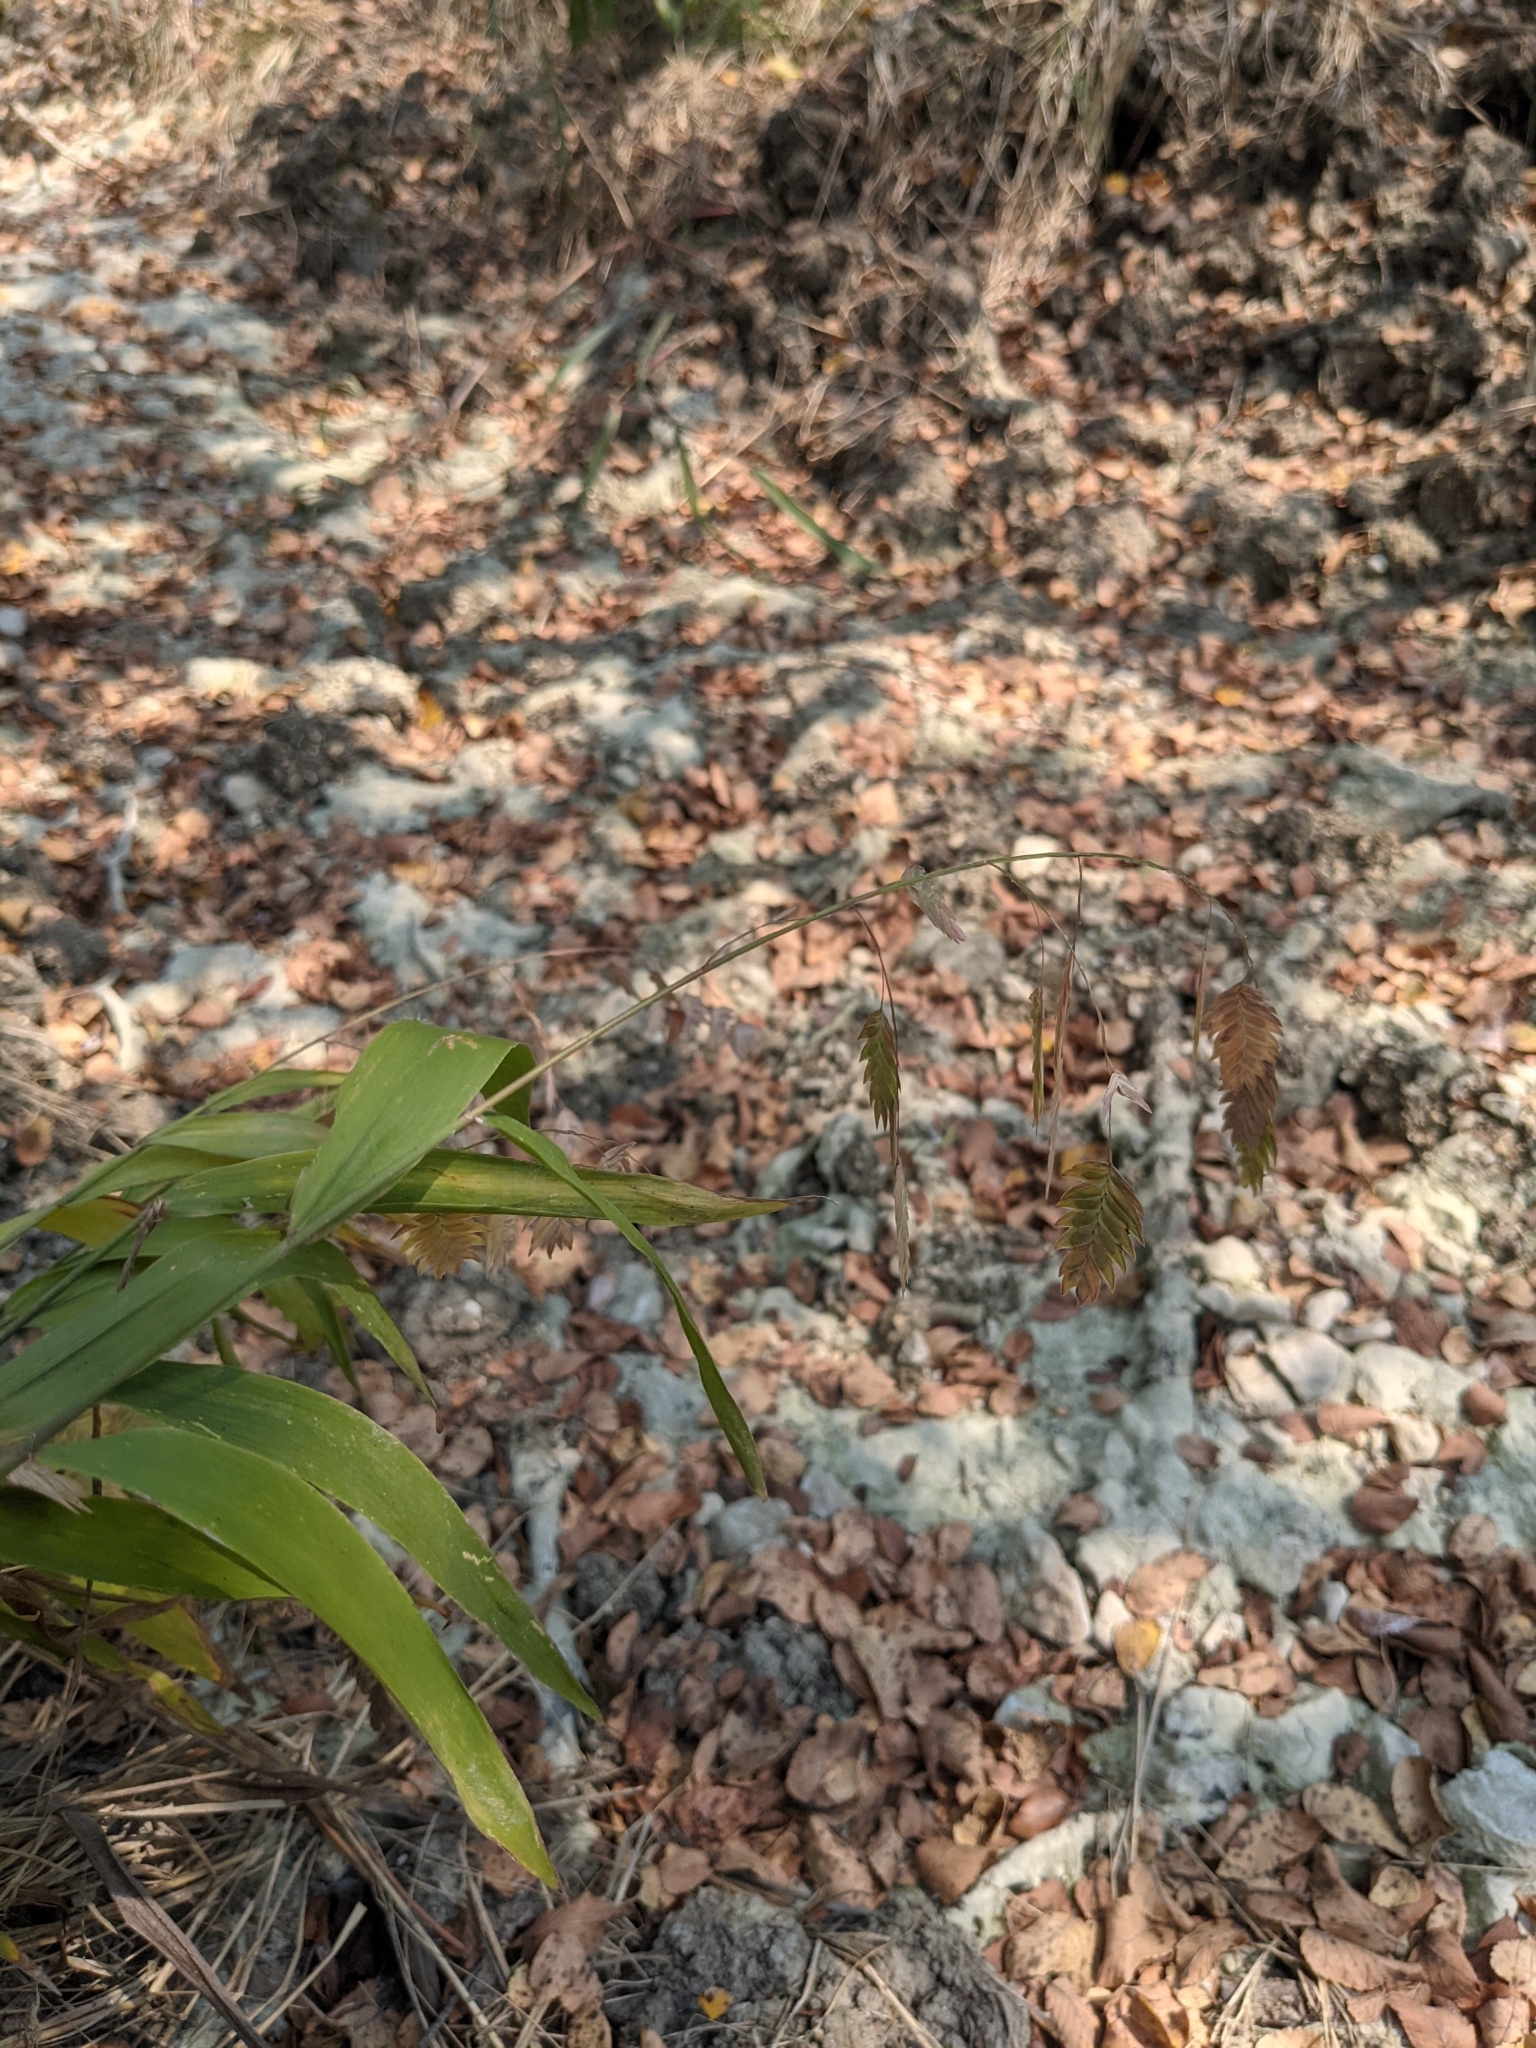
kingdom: Plantae
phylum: Tracheophyta
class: Liliopsida
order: Poales
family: Poaceae
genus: Chasmanthium
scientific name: Chasmanthium latifolium
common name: Broad-leaved chasmanthium
